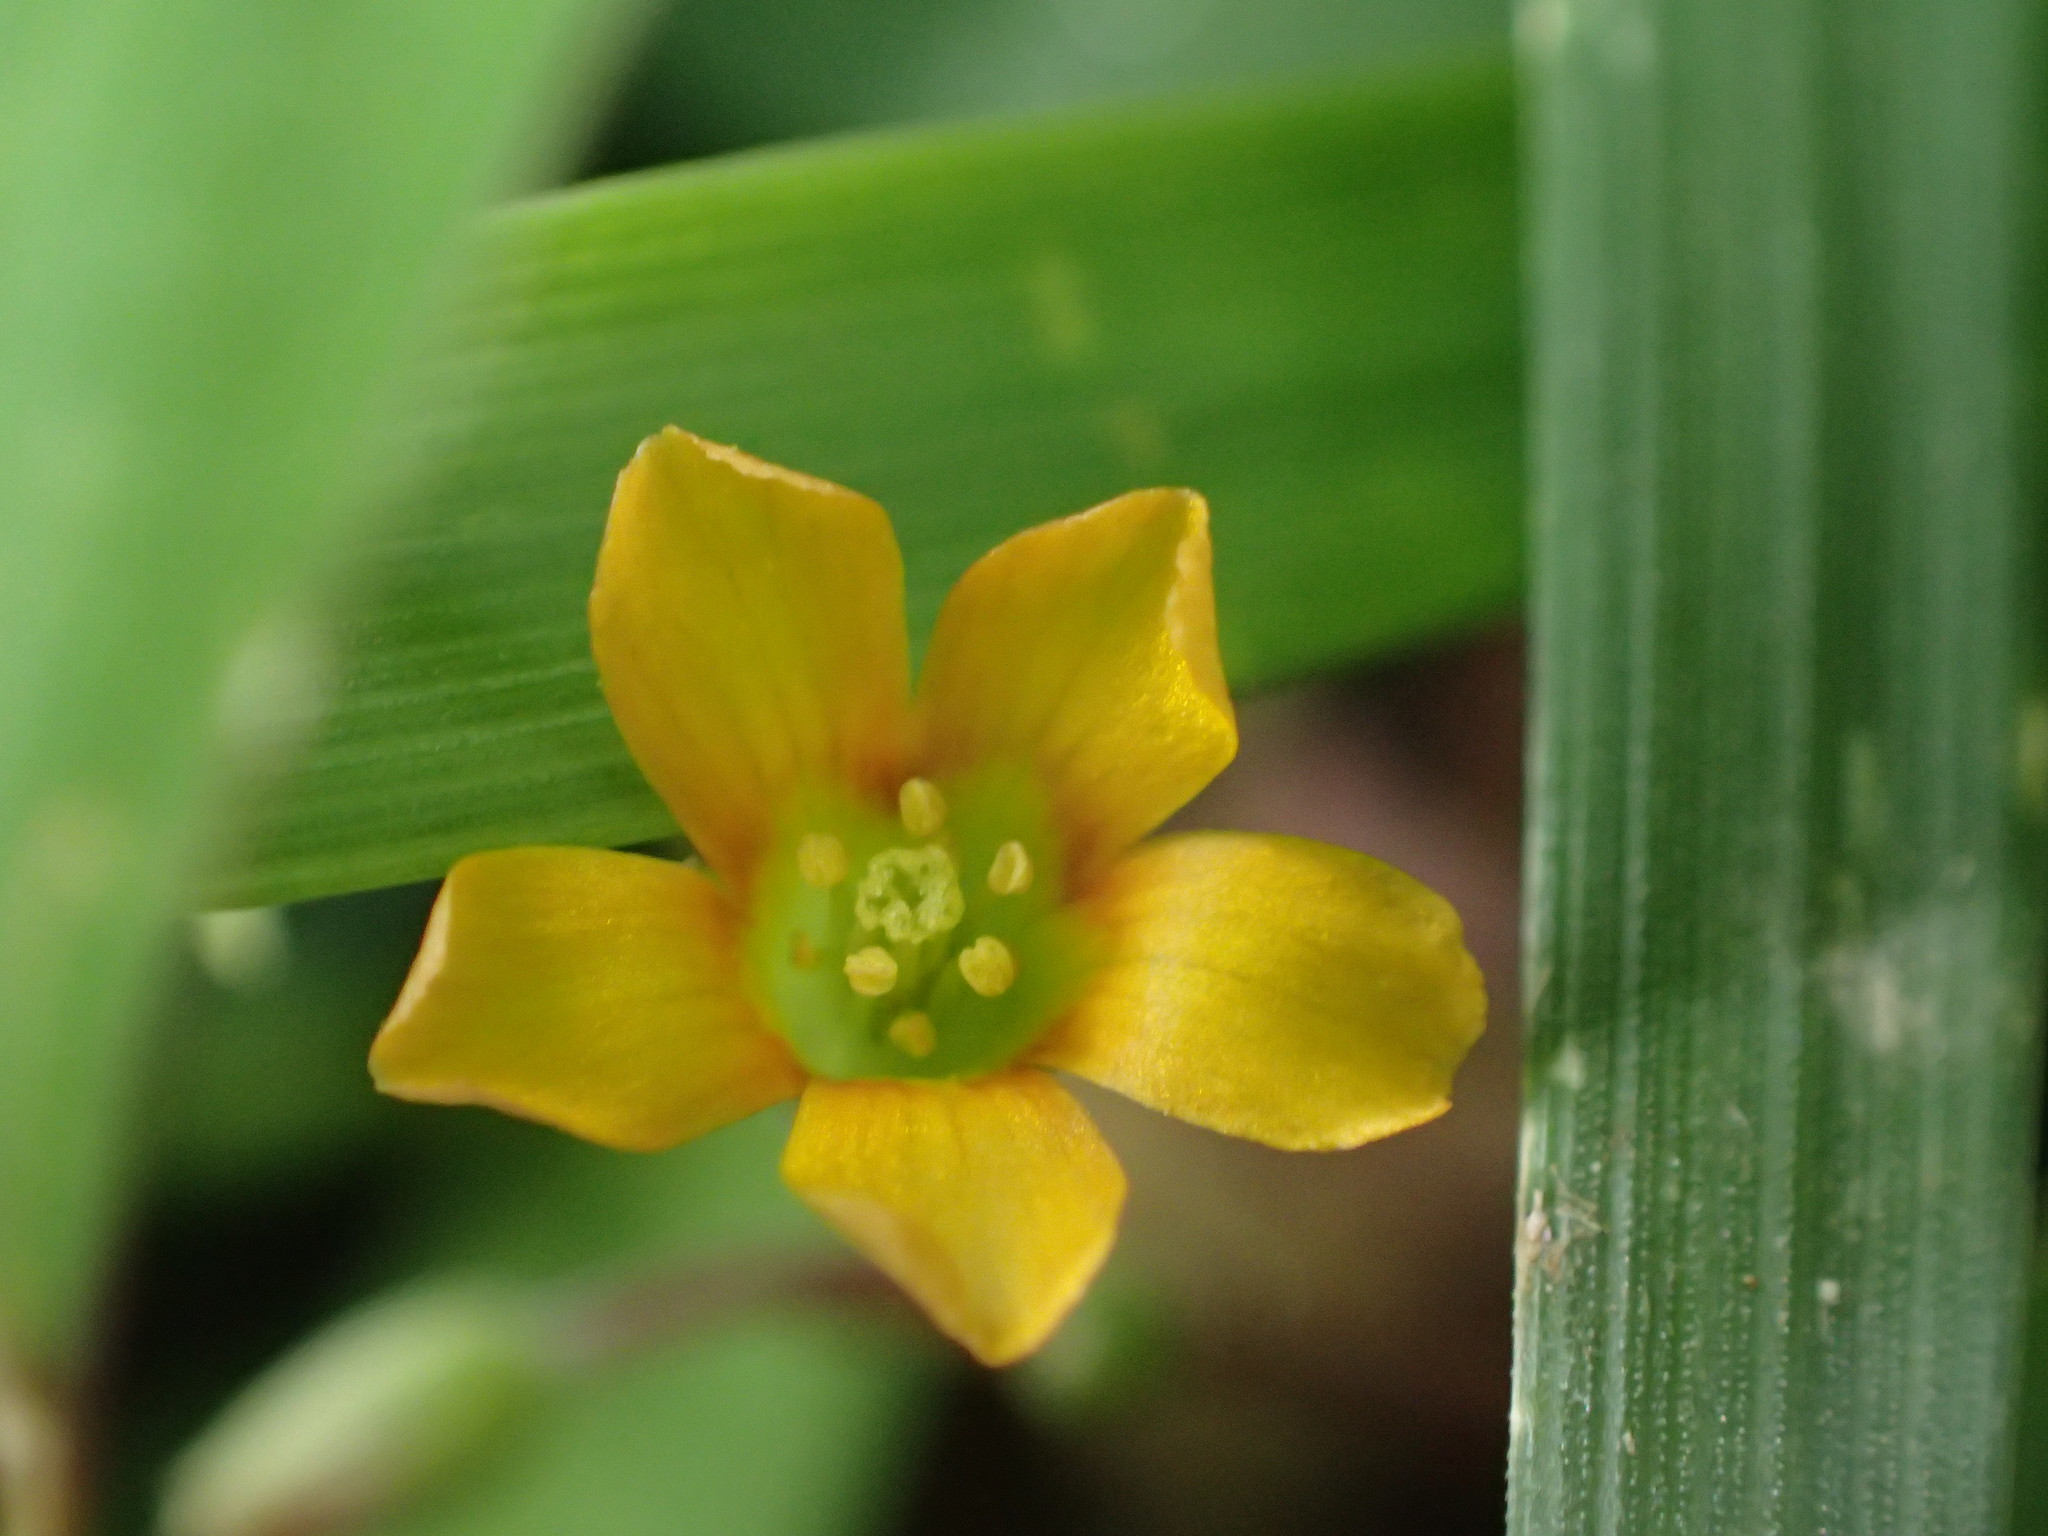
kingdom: Plantae
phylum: Tracheophyta
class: Magnoliopsida
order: Oxalidales
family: Oxalidaceae
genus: Oxalis
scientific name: Oxalis corniculata
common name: Procumbent yellow-sorrel
